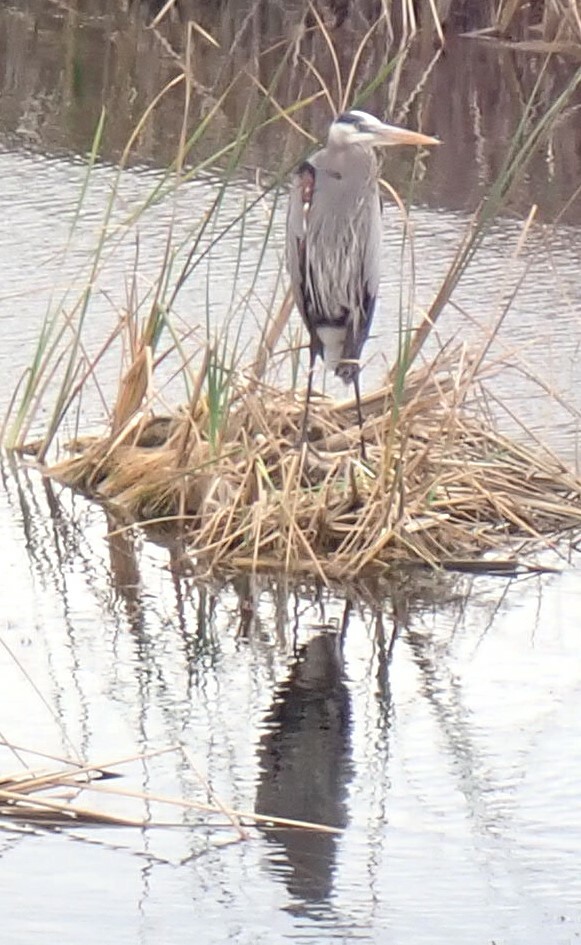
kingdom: Animalia
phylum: Chordata
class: Aves
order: Pelecaniformes
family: Ardeidae
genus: Ardea
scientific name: Ardea herodias
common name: Great blue heron
